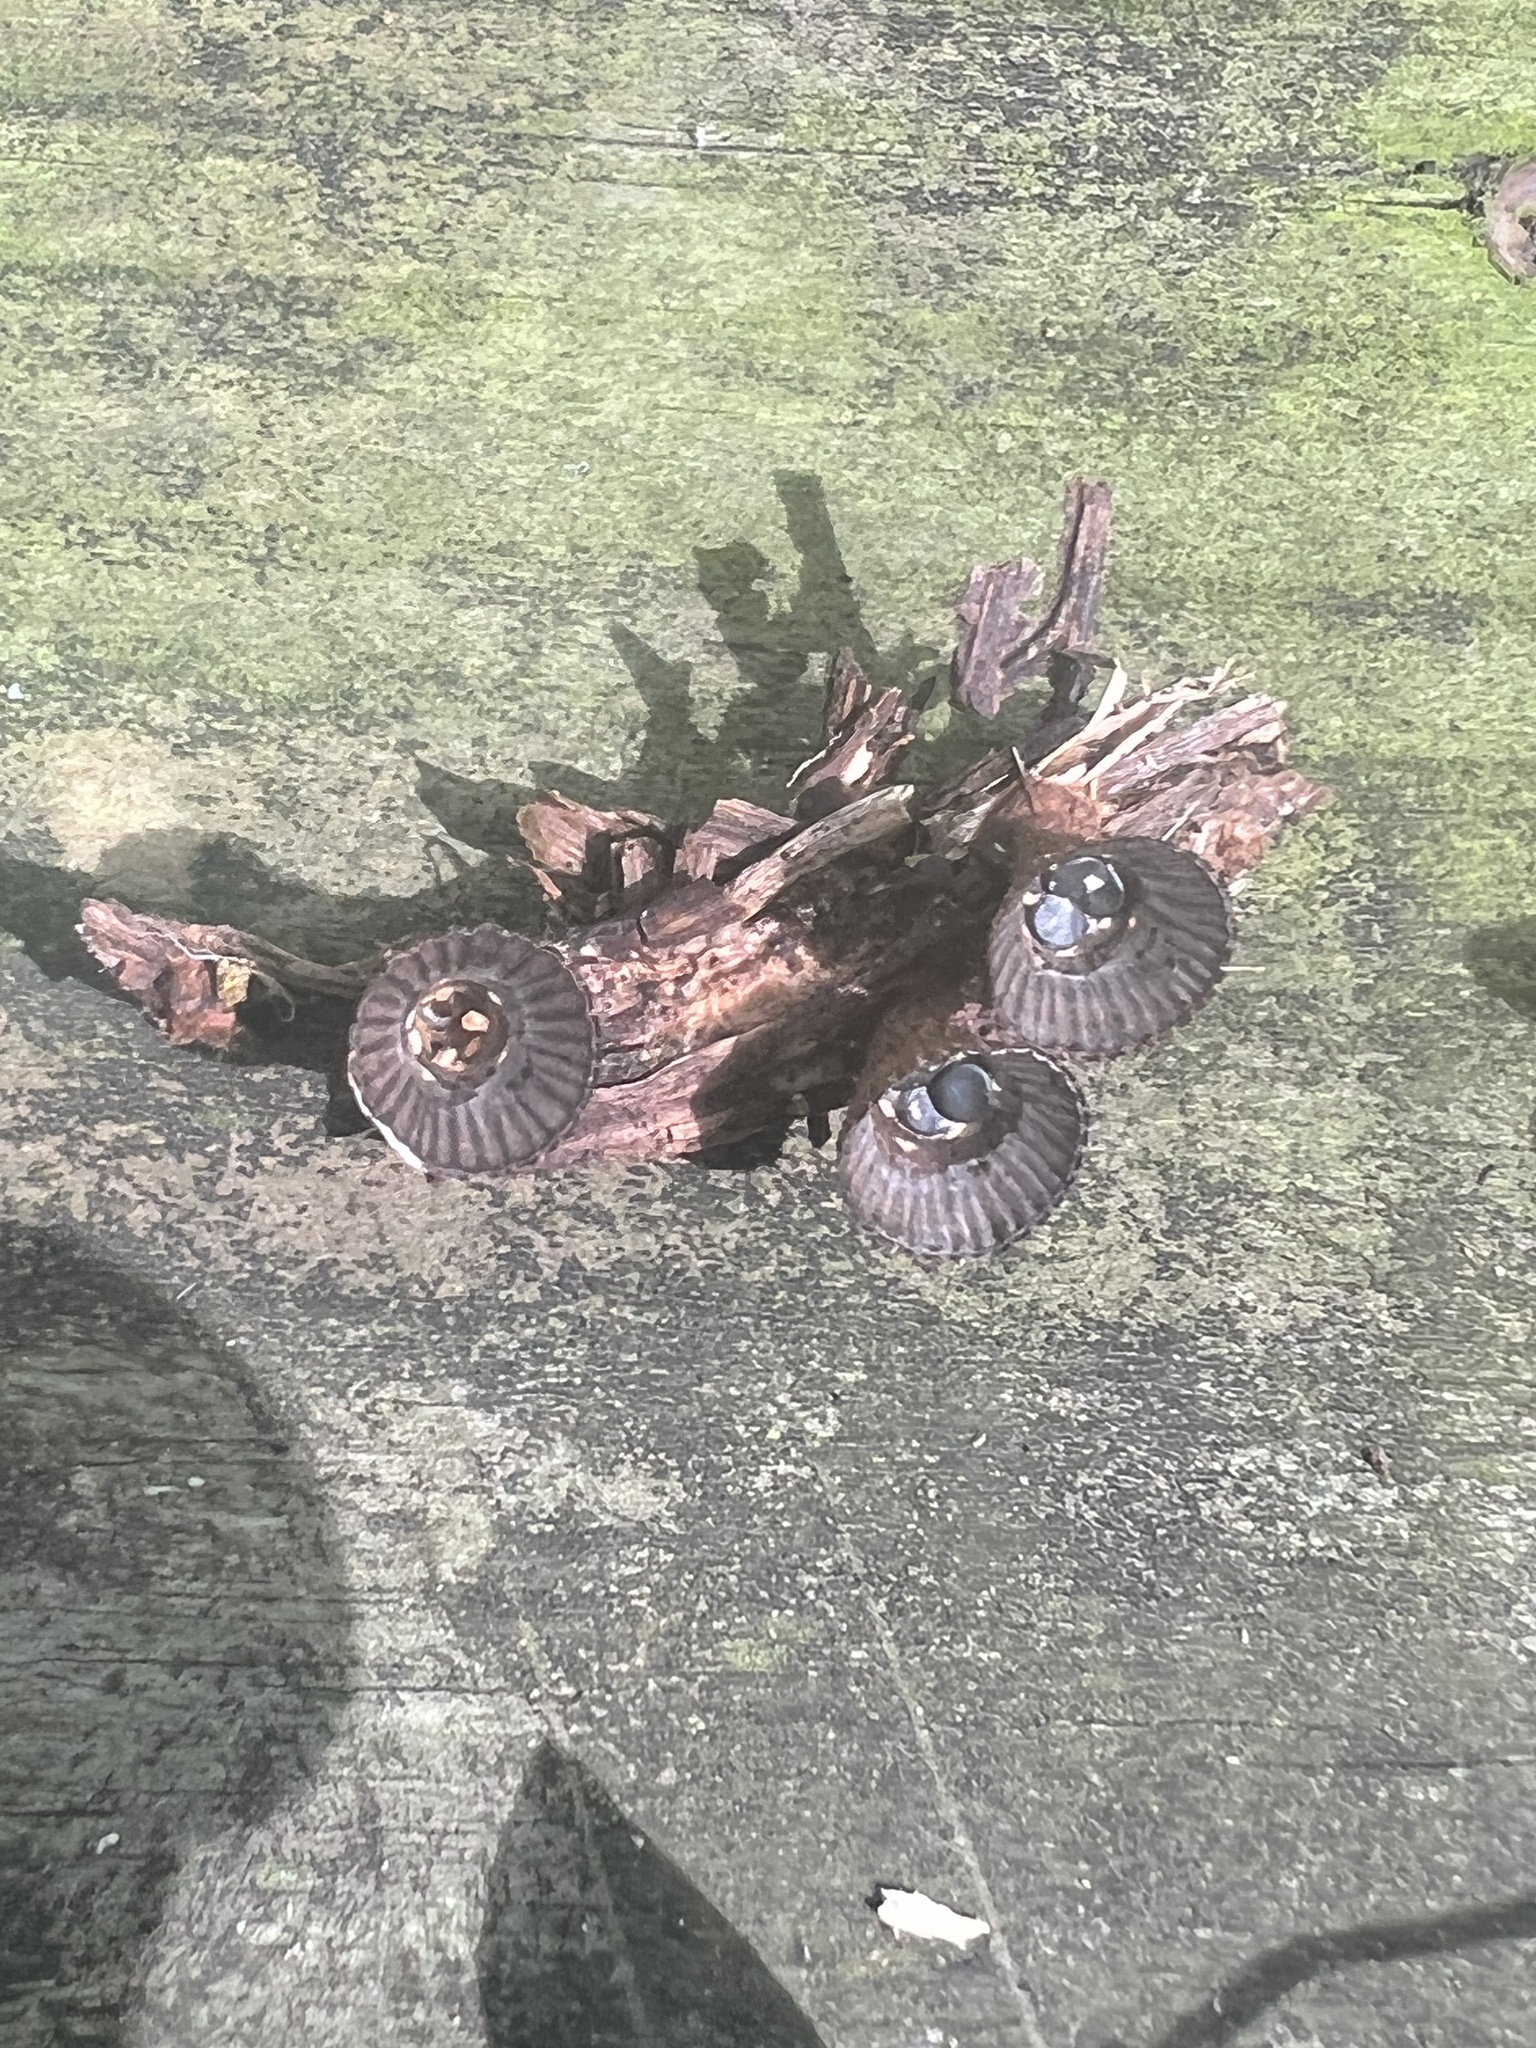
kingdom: Fungi
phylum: Basidiomycota
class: Agaricomycetes
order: Agaricales
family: Agaricaceae
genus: Cyathus
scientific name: Cyathus striatus
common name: Fluted bird's nest
